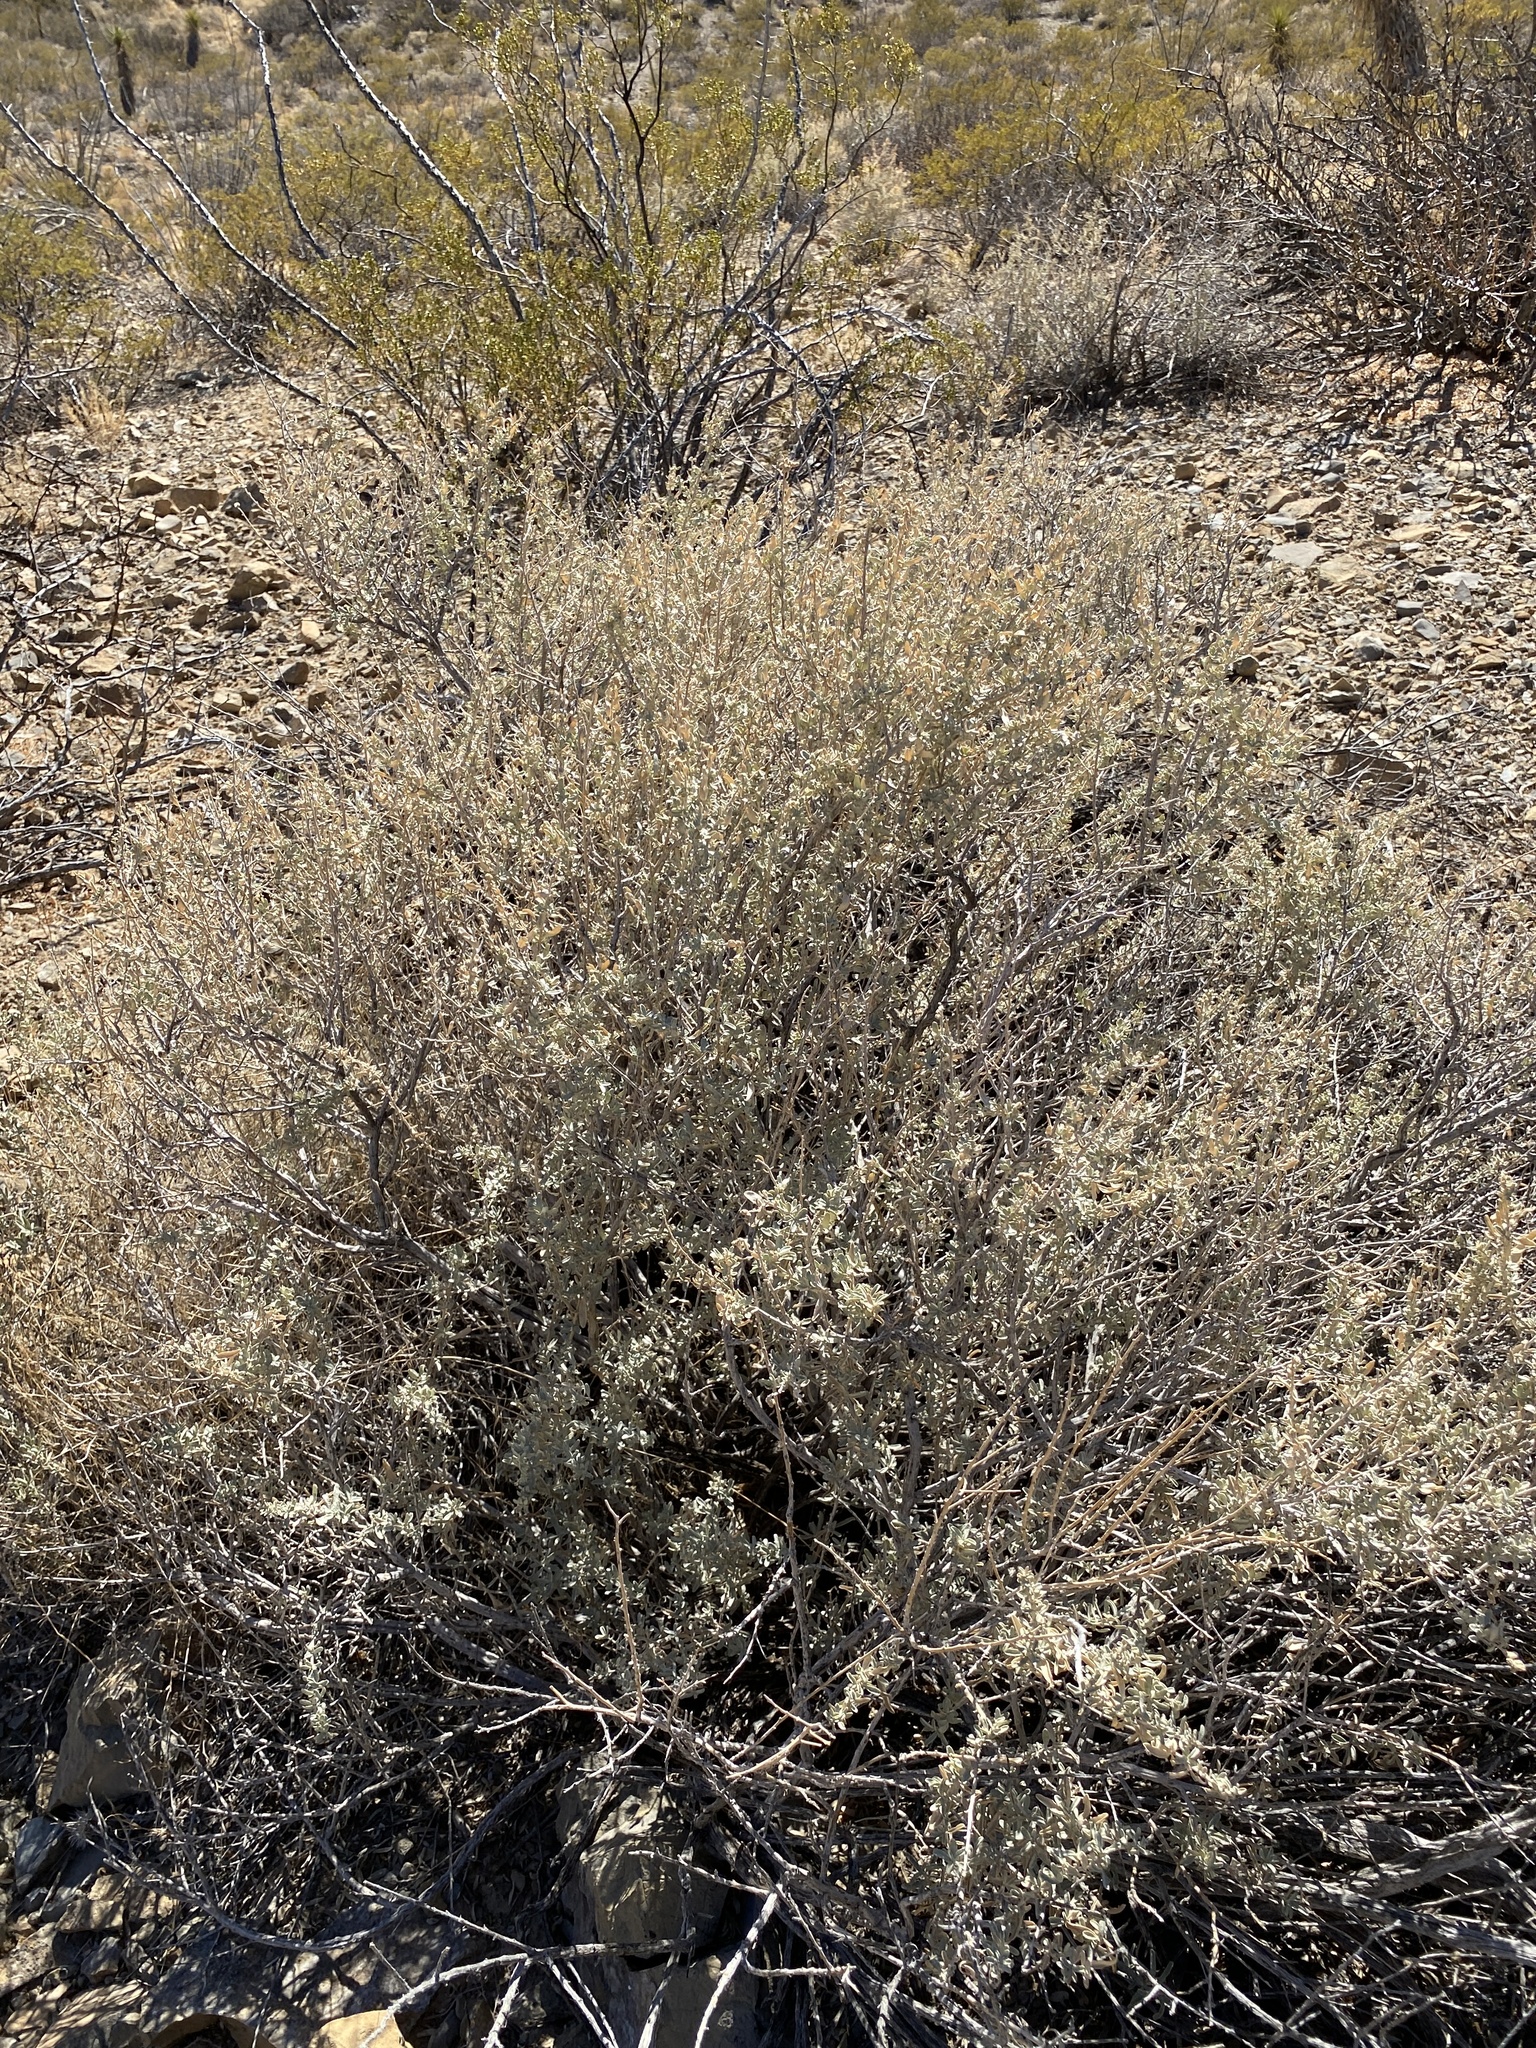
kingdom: Plantae
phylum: Tracheophyta
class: Magnoliopsida
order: Caryophyllales
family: Amaranthaceae
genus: Atriplex
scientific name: Atriplex canescens
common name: Four-wing saltbush
